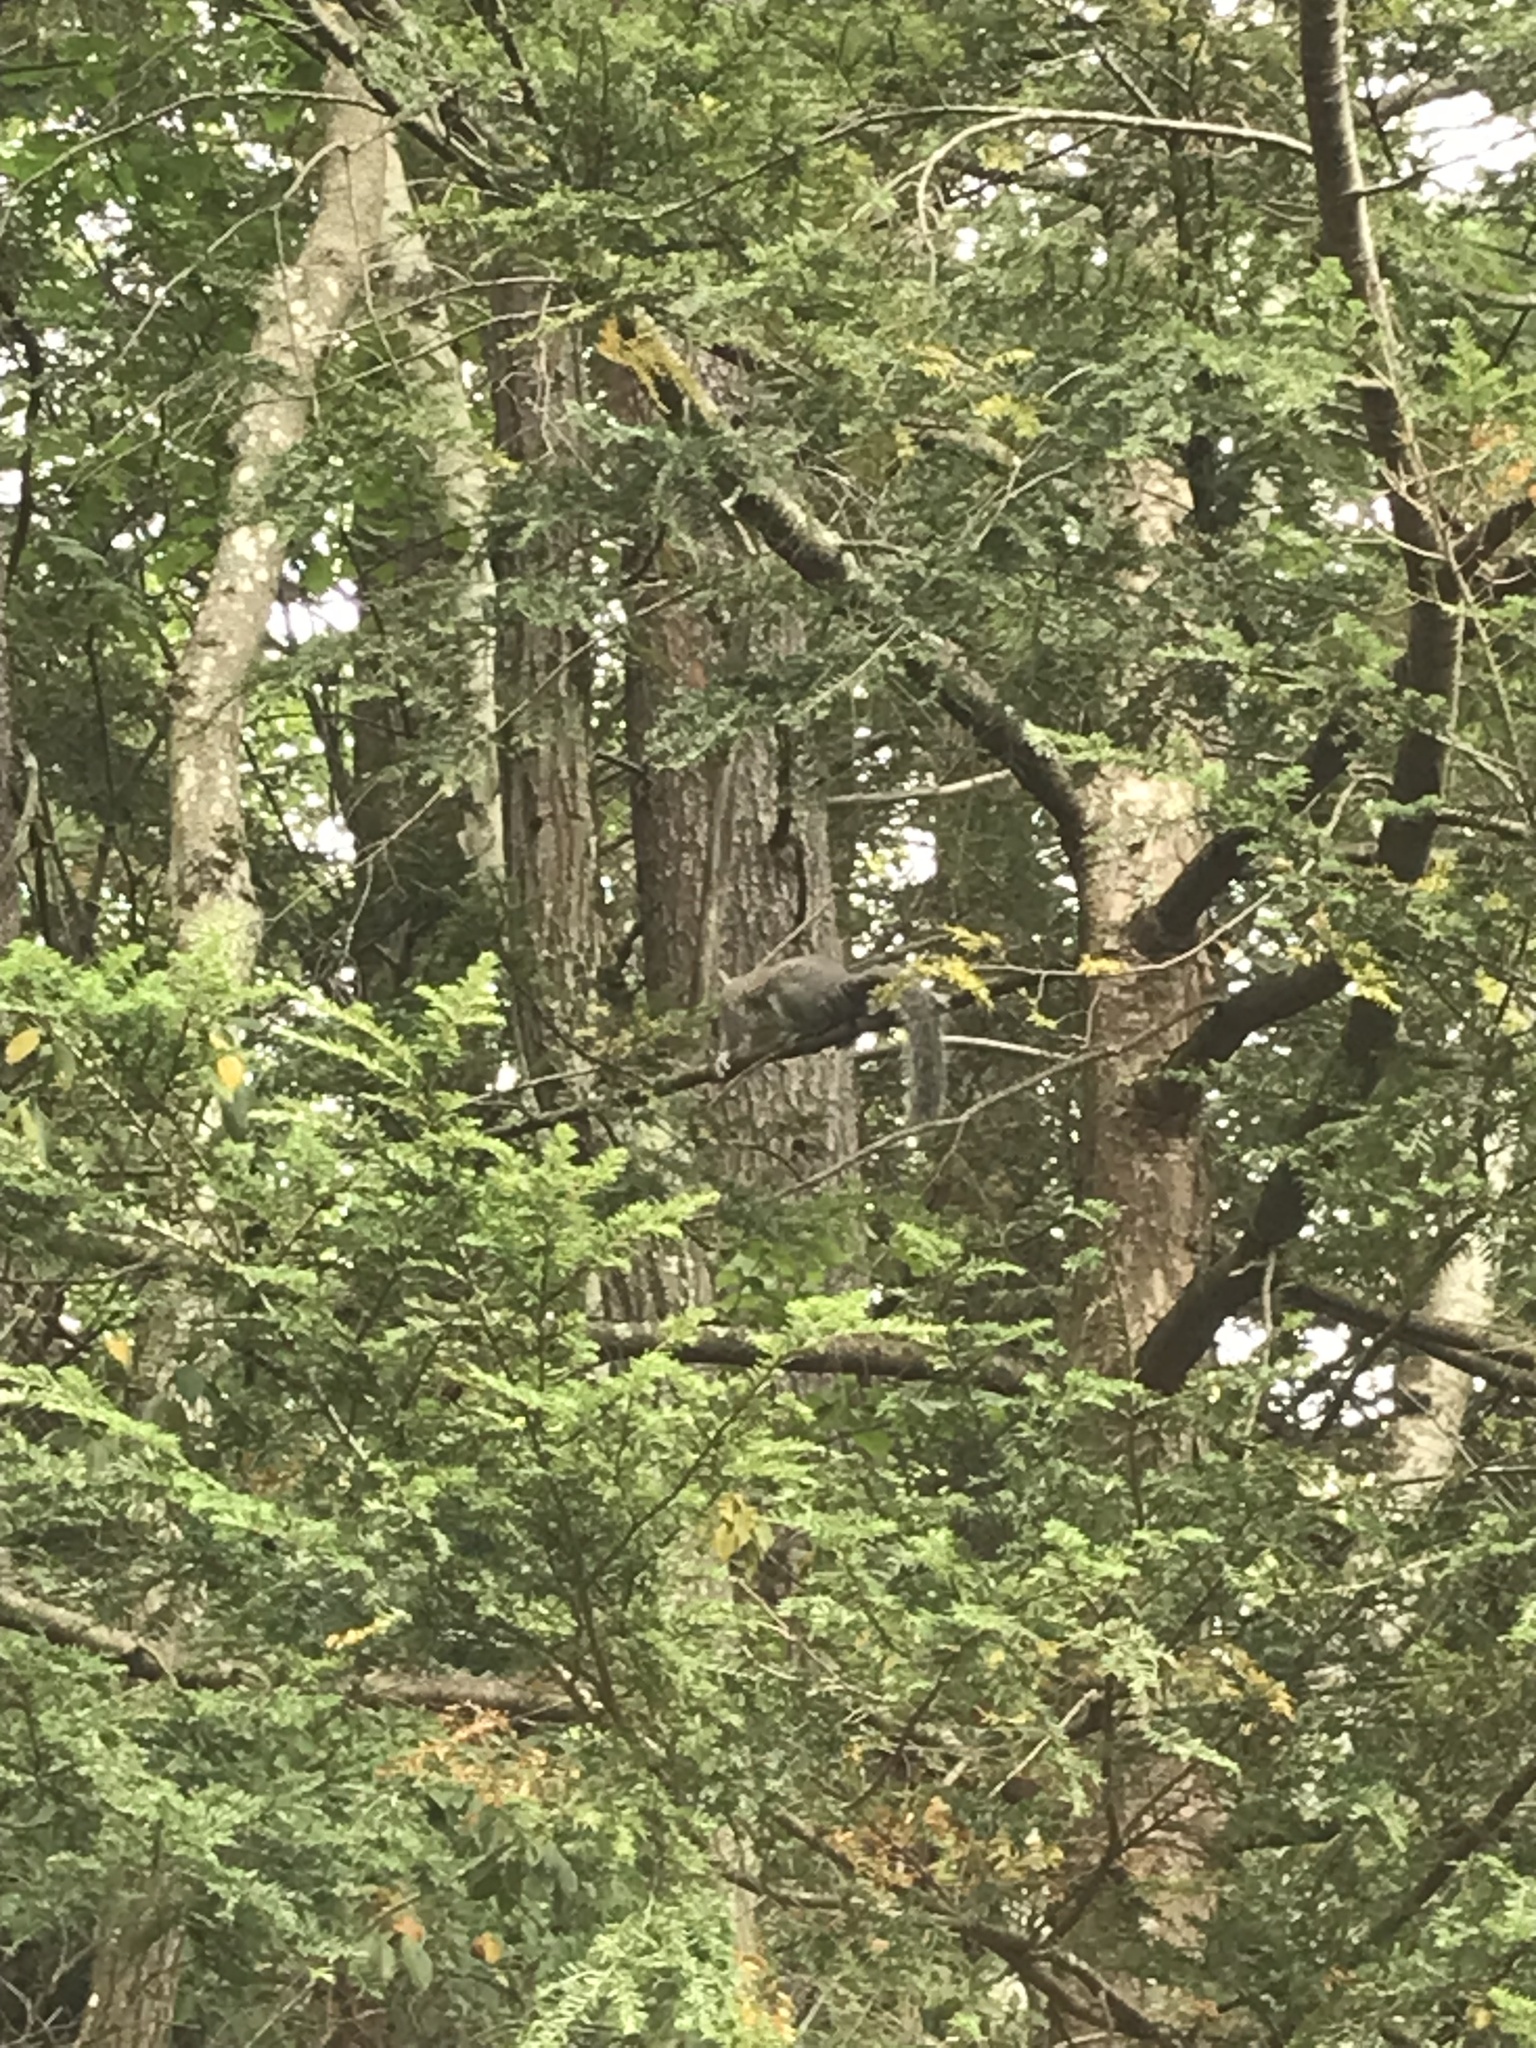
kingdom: Animalia
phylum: Chordata
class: Mammalia
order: Rodentia
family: Sciuridae
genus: Sciurus
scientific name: Sciurus carolinensis
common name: Eastern gray squirrel
